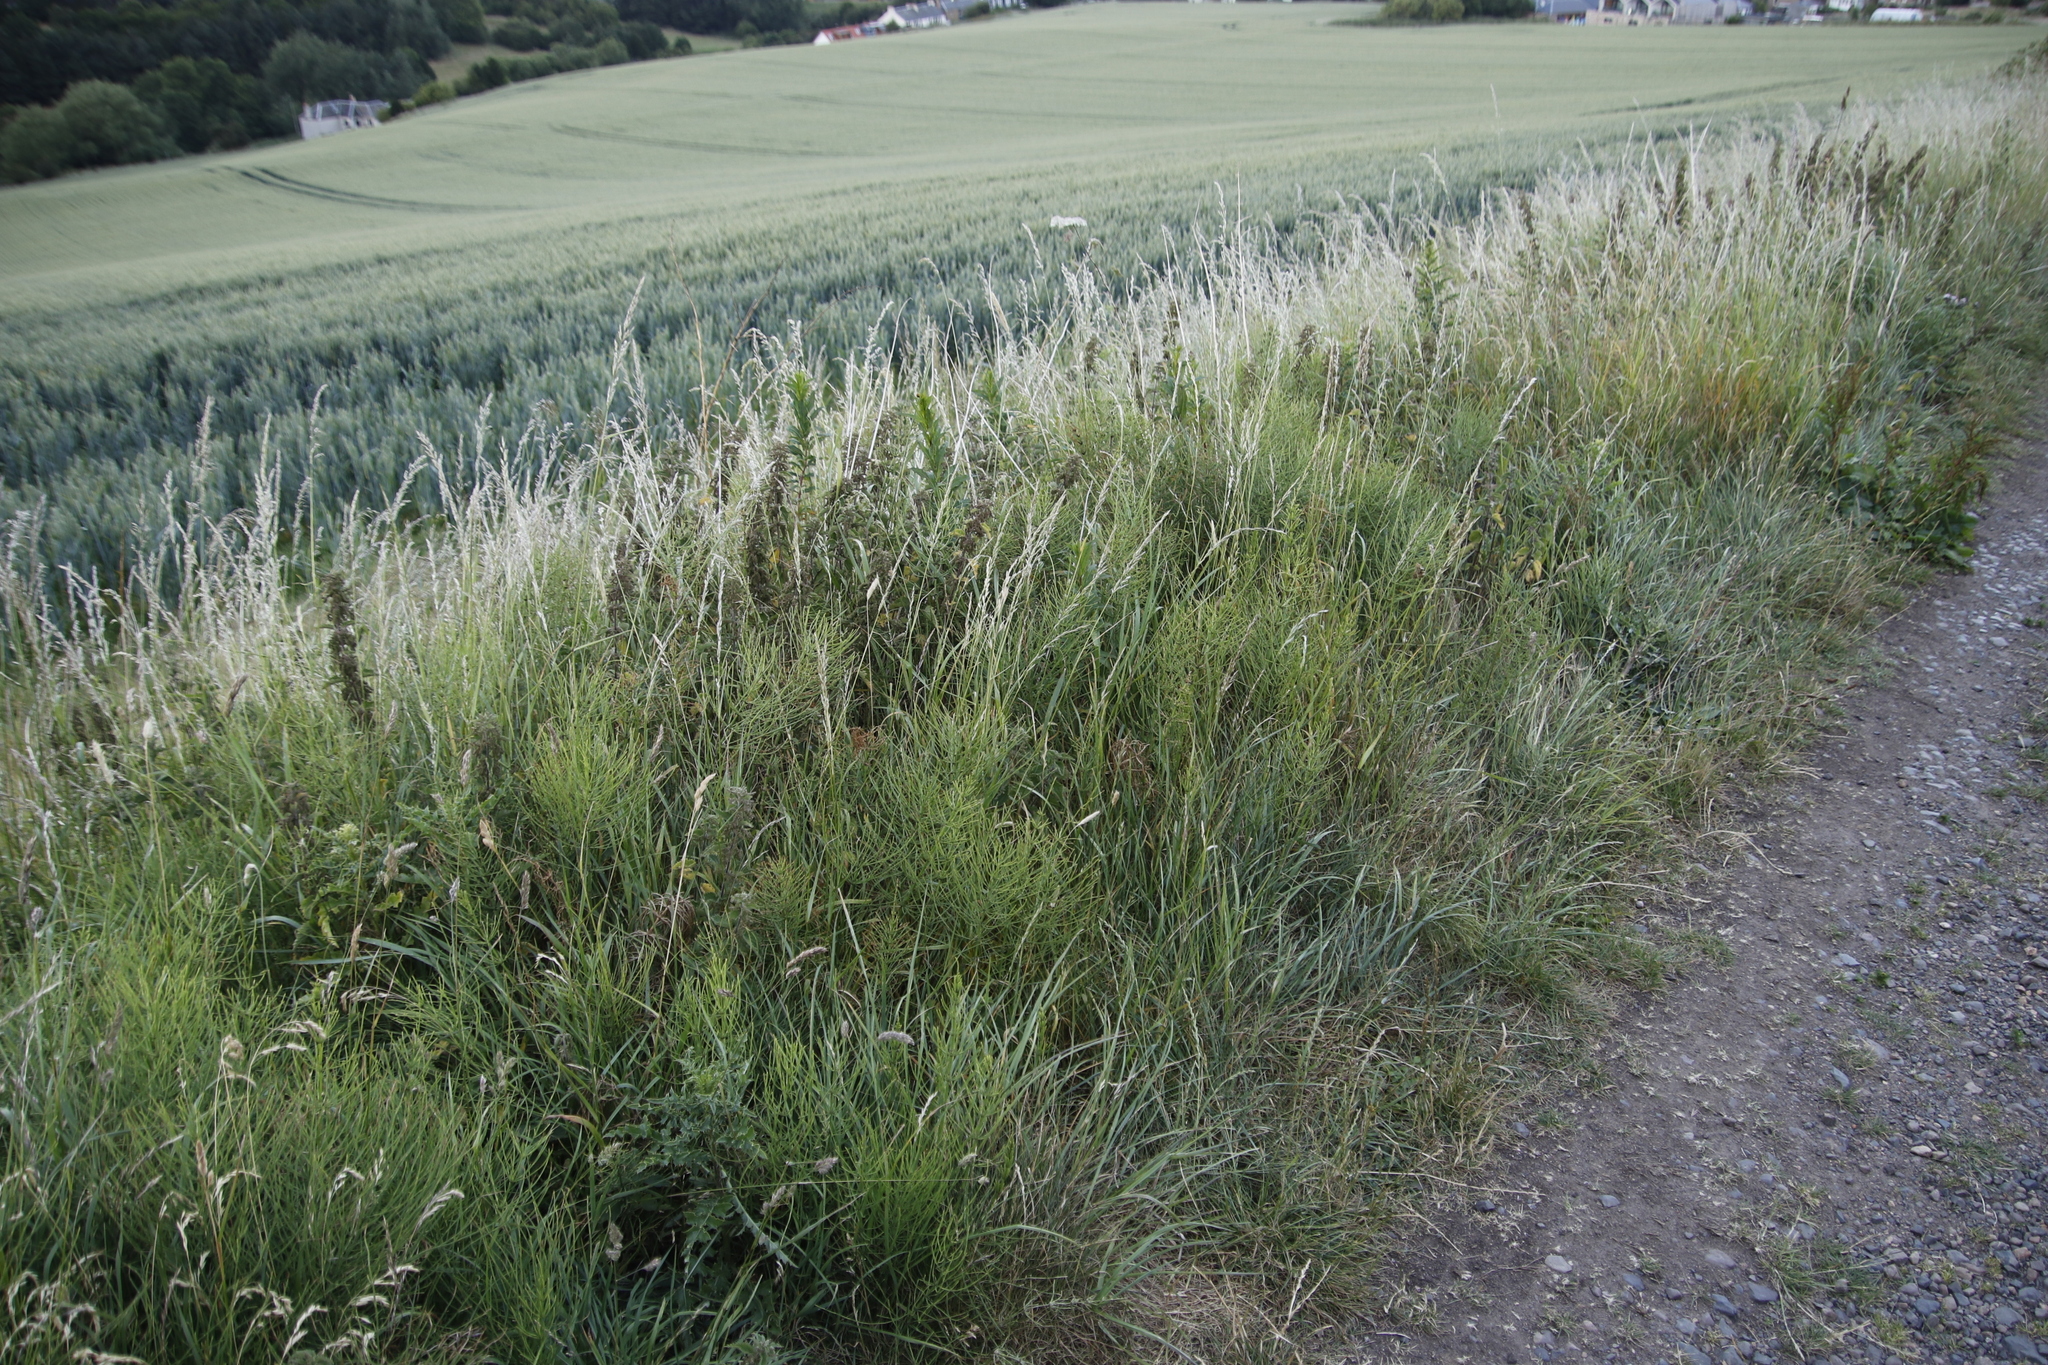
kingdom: Plantae
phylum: Tracheophyta
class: Polypodiopsida
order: Equisetales
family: Equisetaceae
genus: Equisetum
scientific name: Equisetum arvense
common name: Field horsetail
